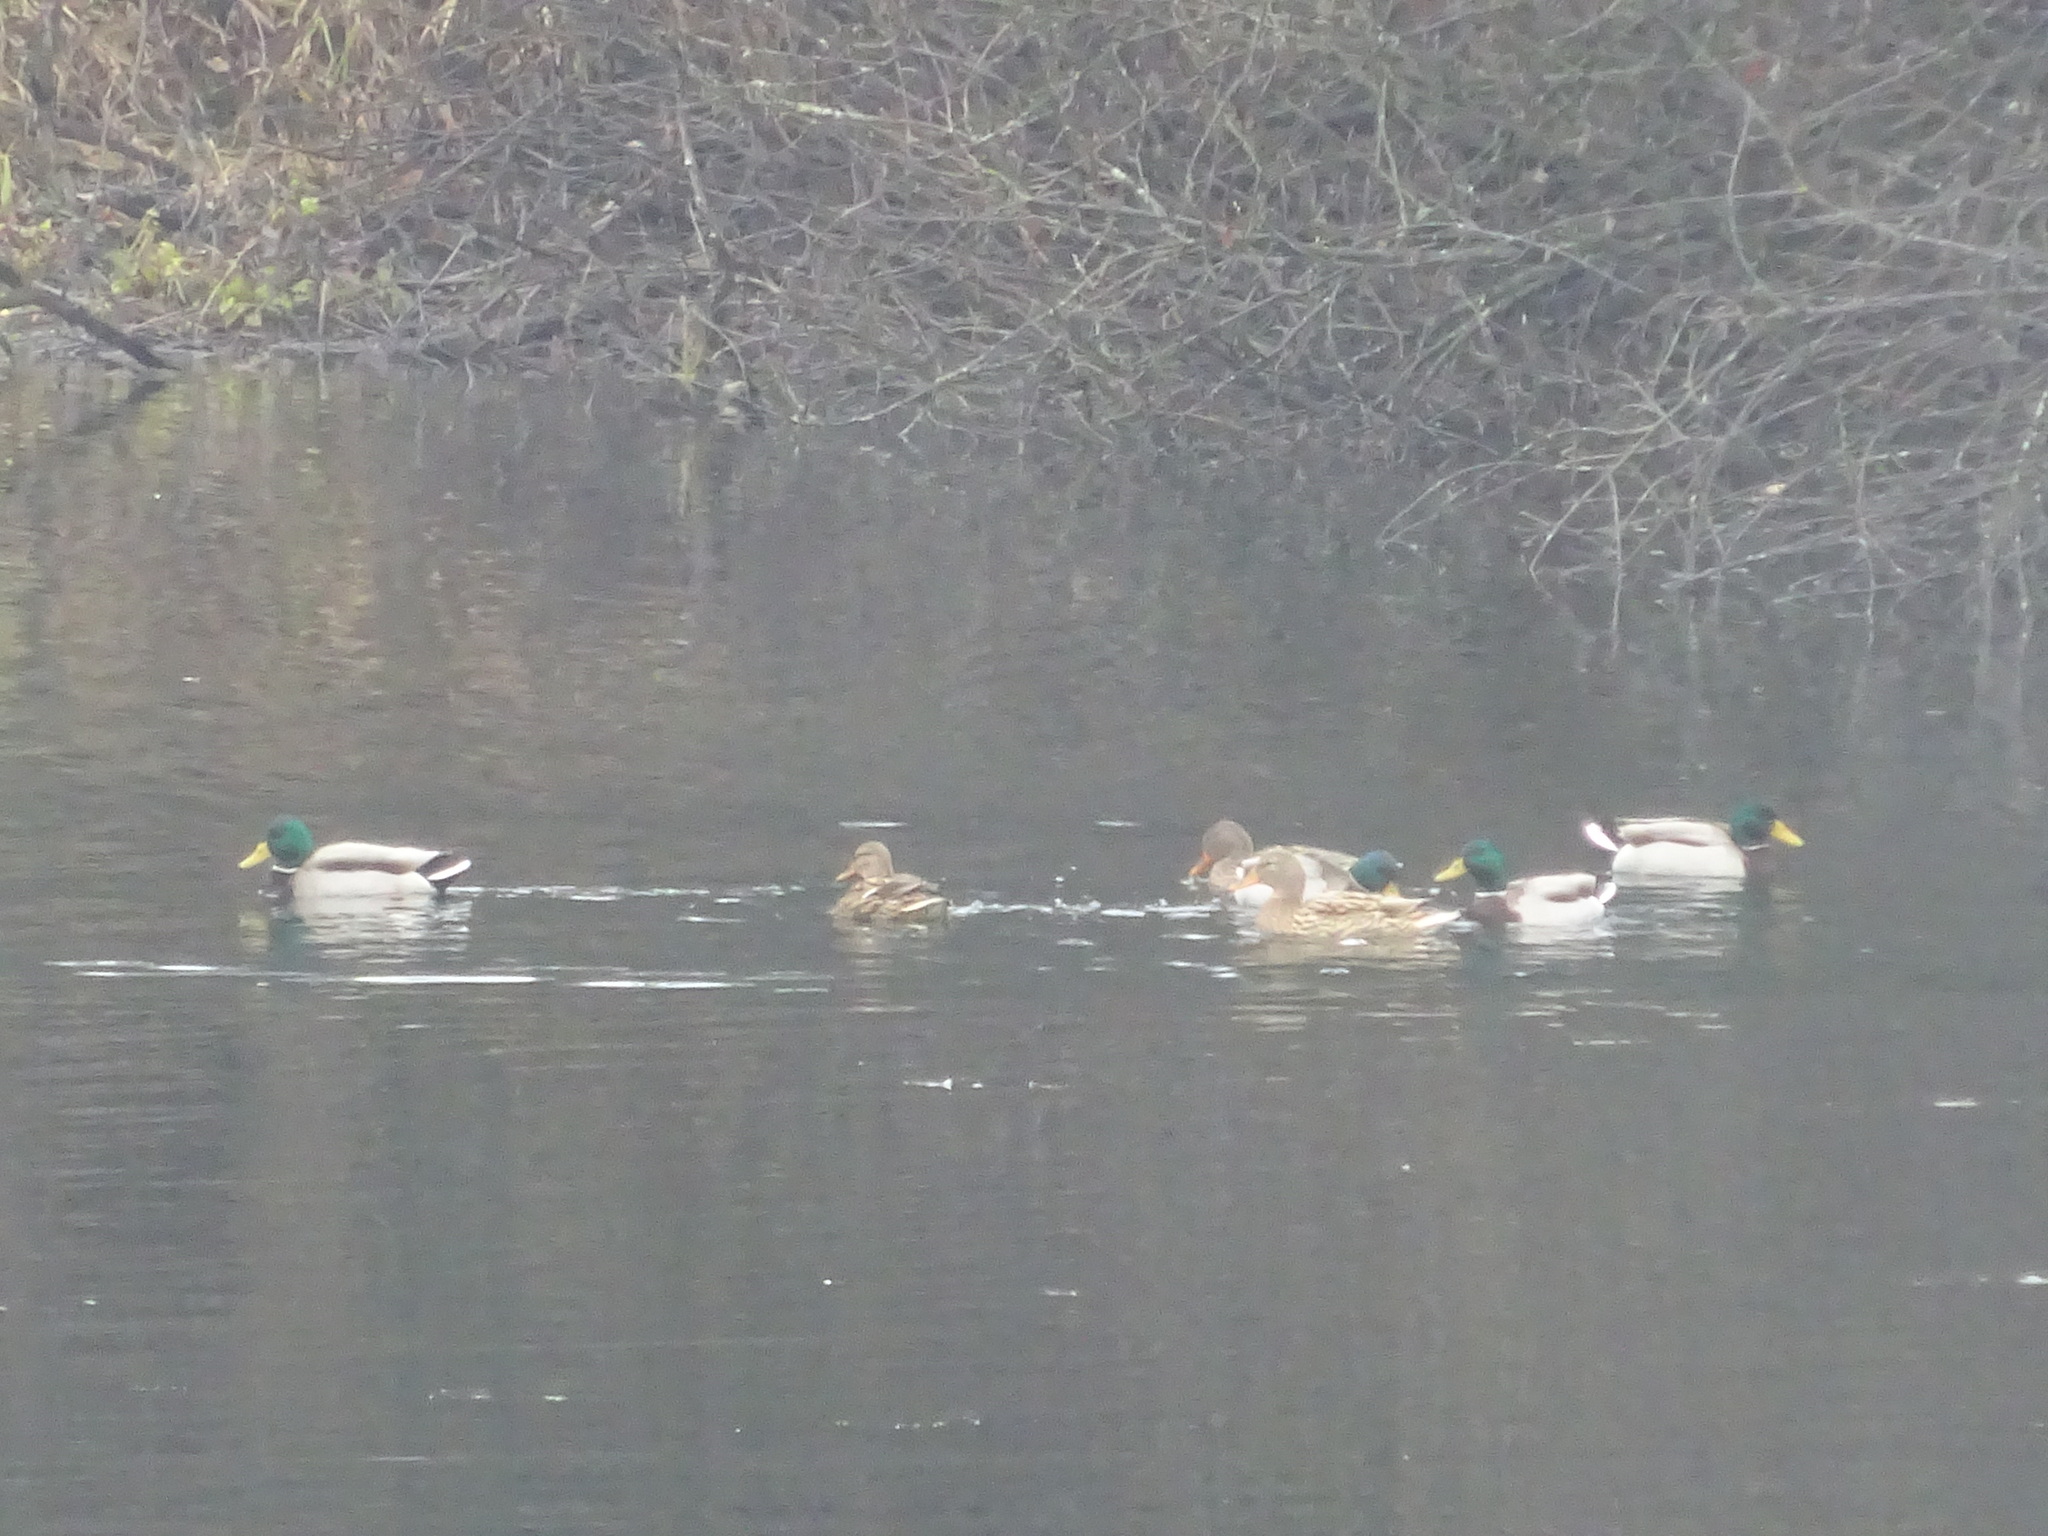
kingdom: Animalia
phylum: Chordata
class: Aves
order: Anseriformes
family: Anatidae
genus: Anas
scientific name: Anas platyrhynchos
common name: Mallard
